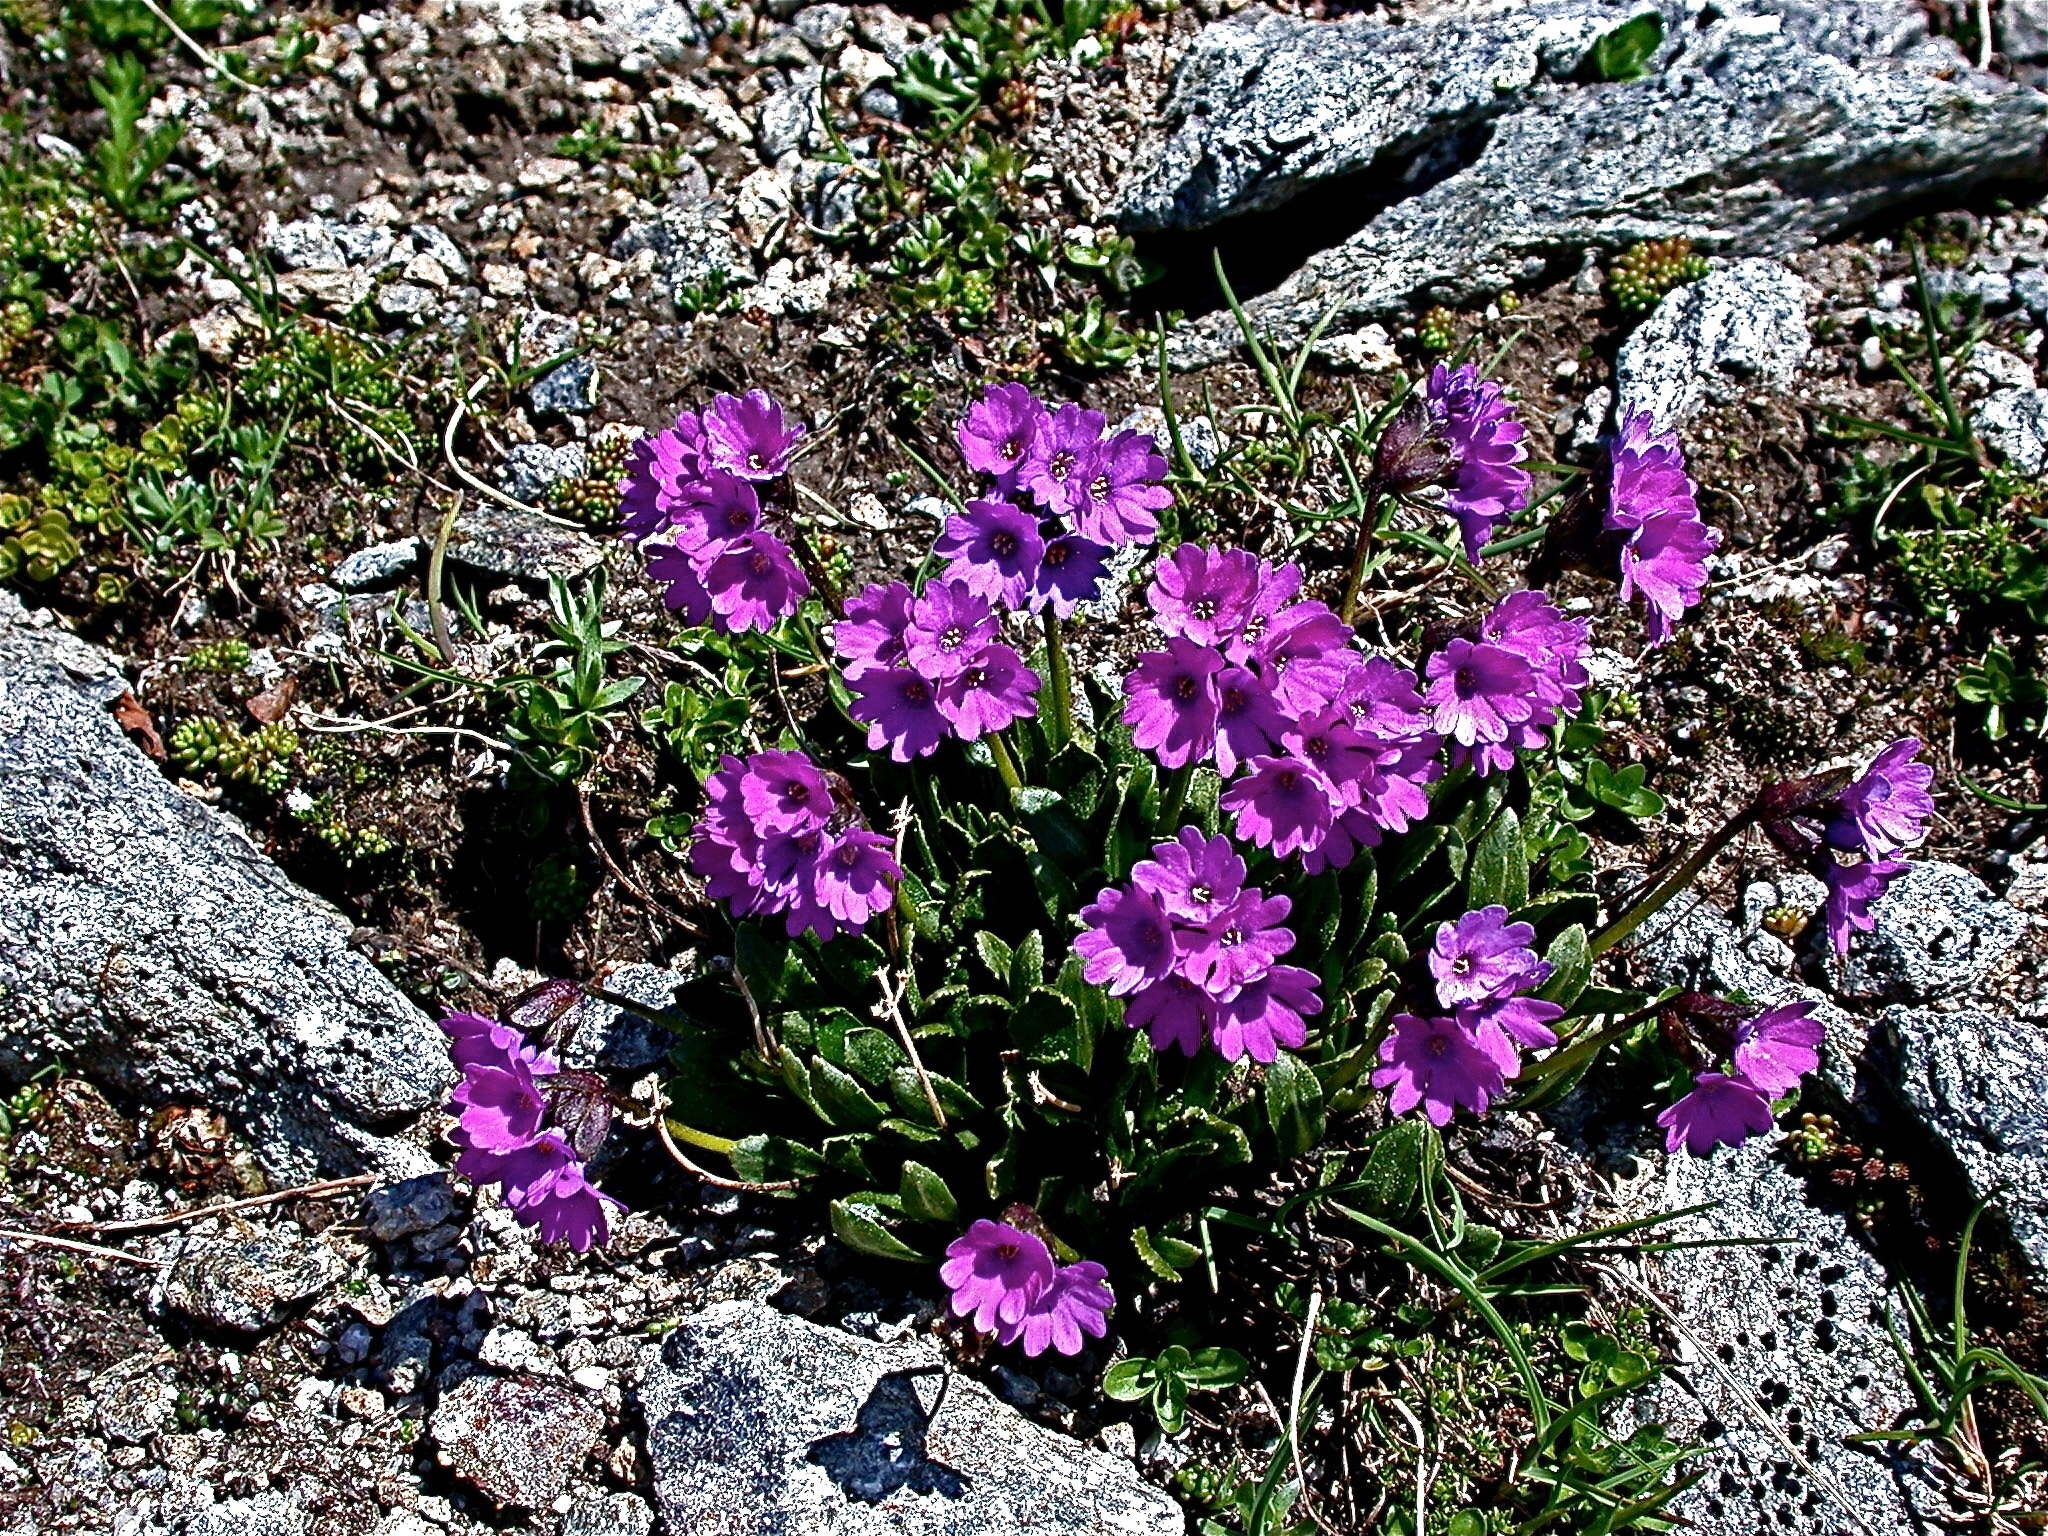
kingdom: Plantae
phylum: Tracheophyta
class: Magnoliopsida
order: Ericales
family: Primulaceae
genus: Primula
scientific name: Primula glutinosa
